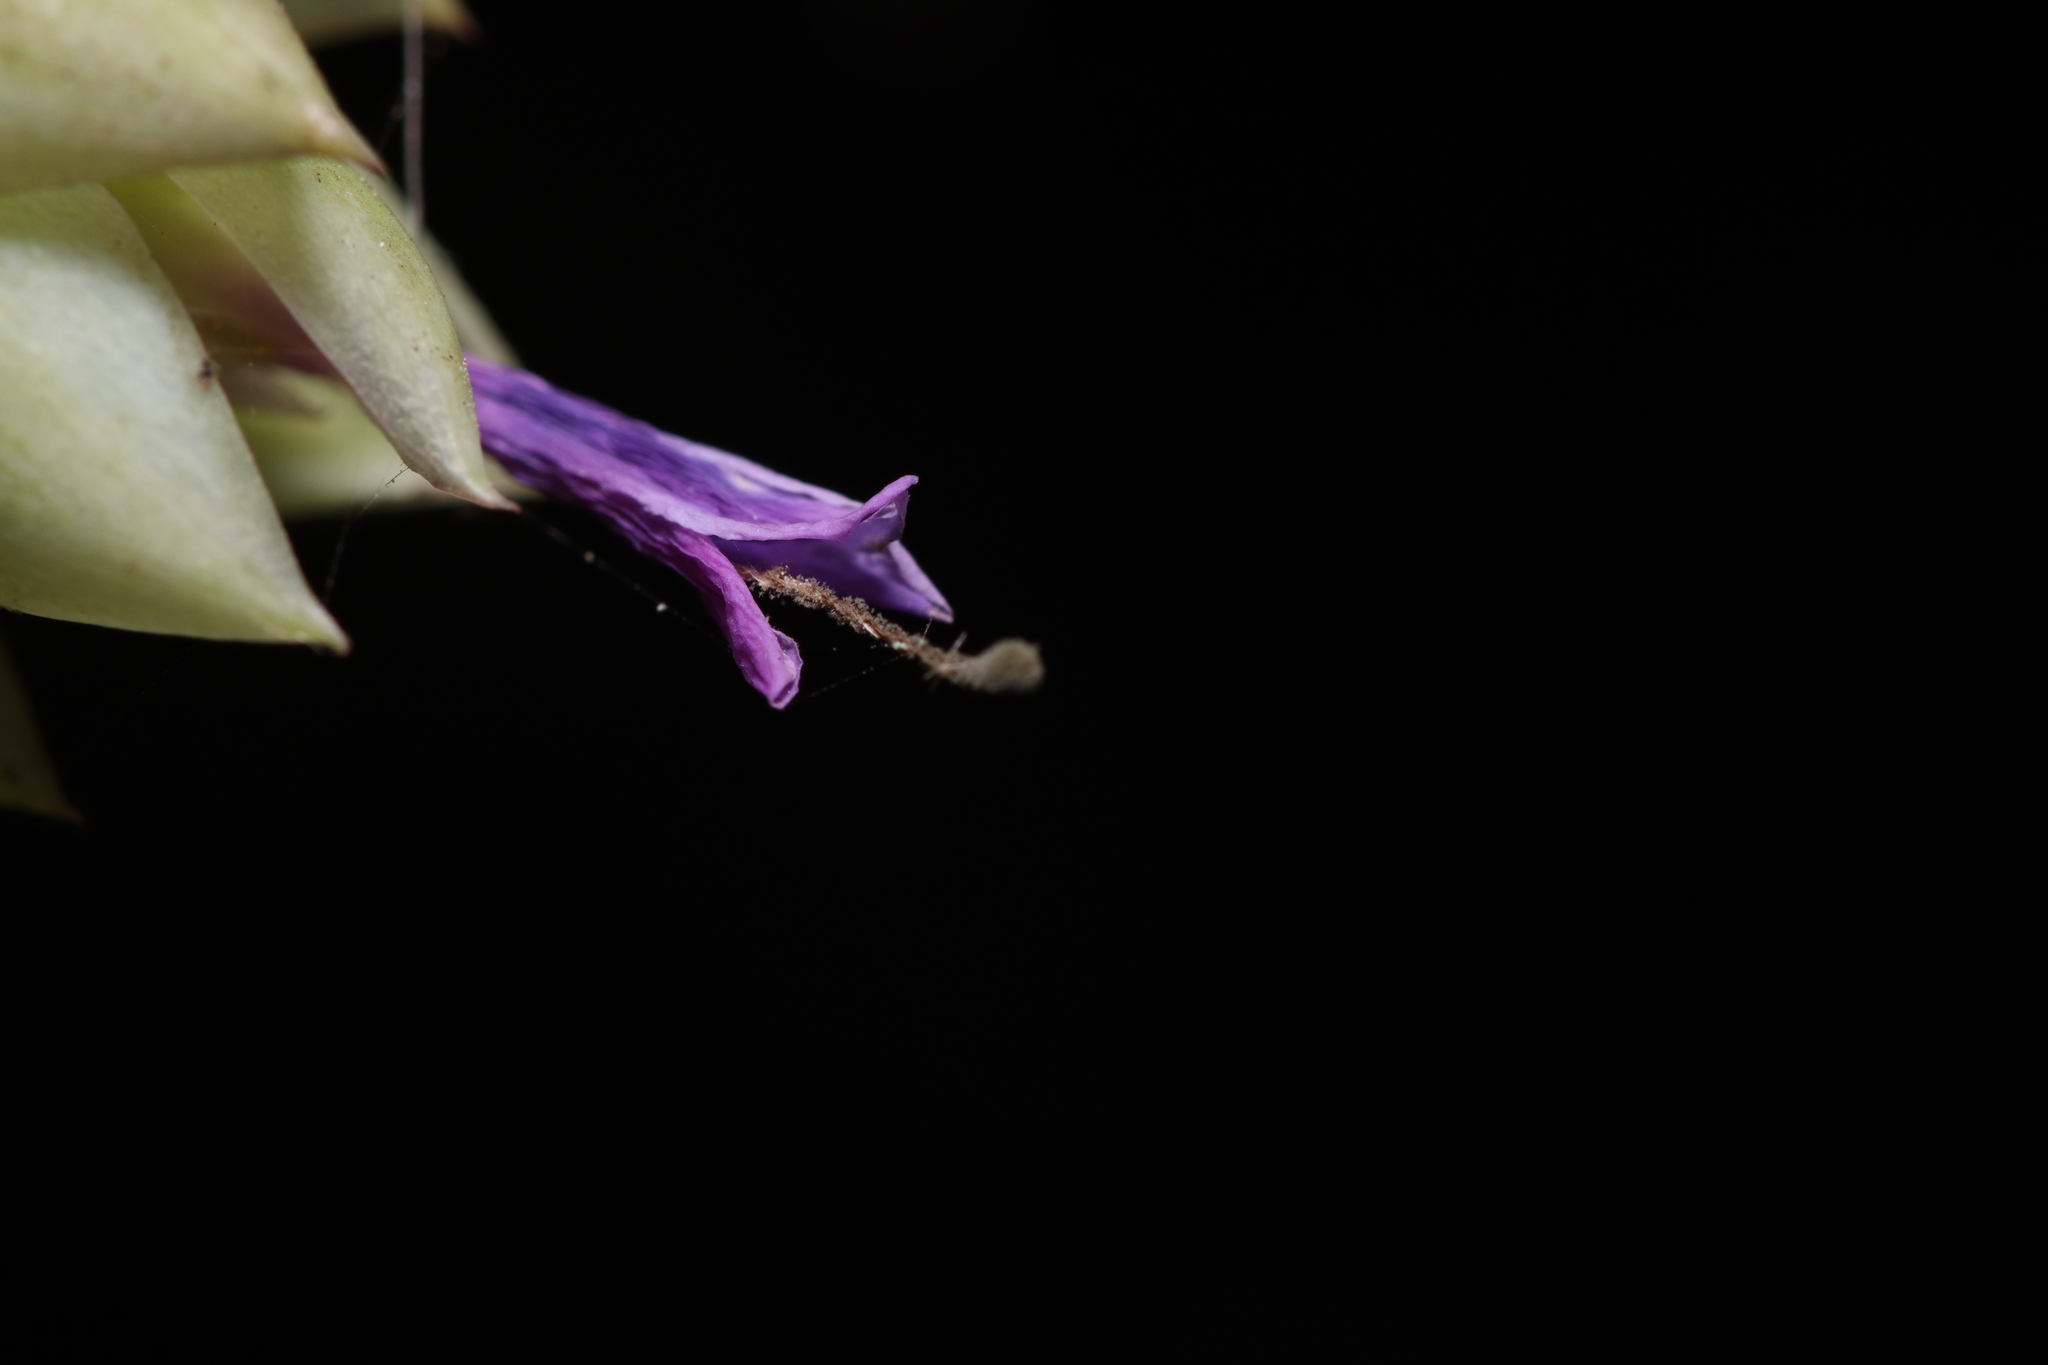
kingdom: Plantae
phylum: Tracheophyta
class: Liliopsida
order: Poales
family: Bromeliaceae
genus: Tillandsia
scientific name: Tillandsia stricta
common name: Airplant
